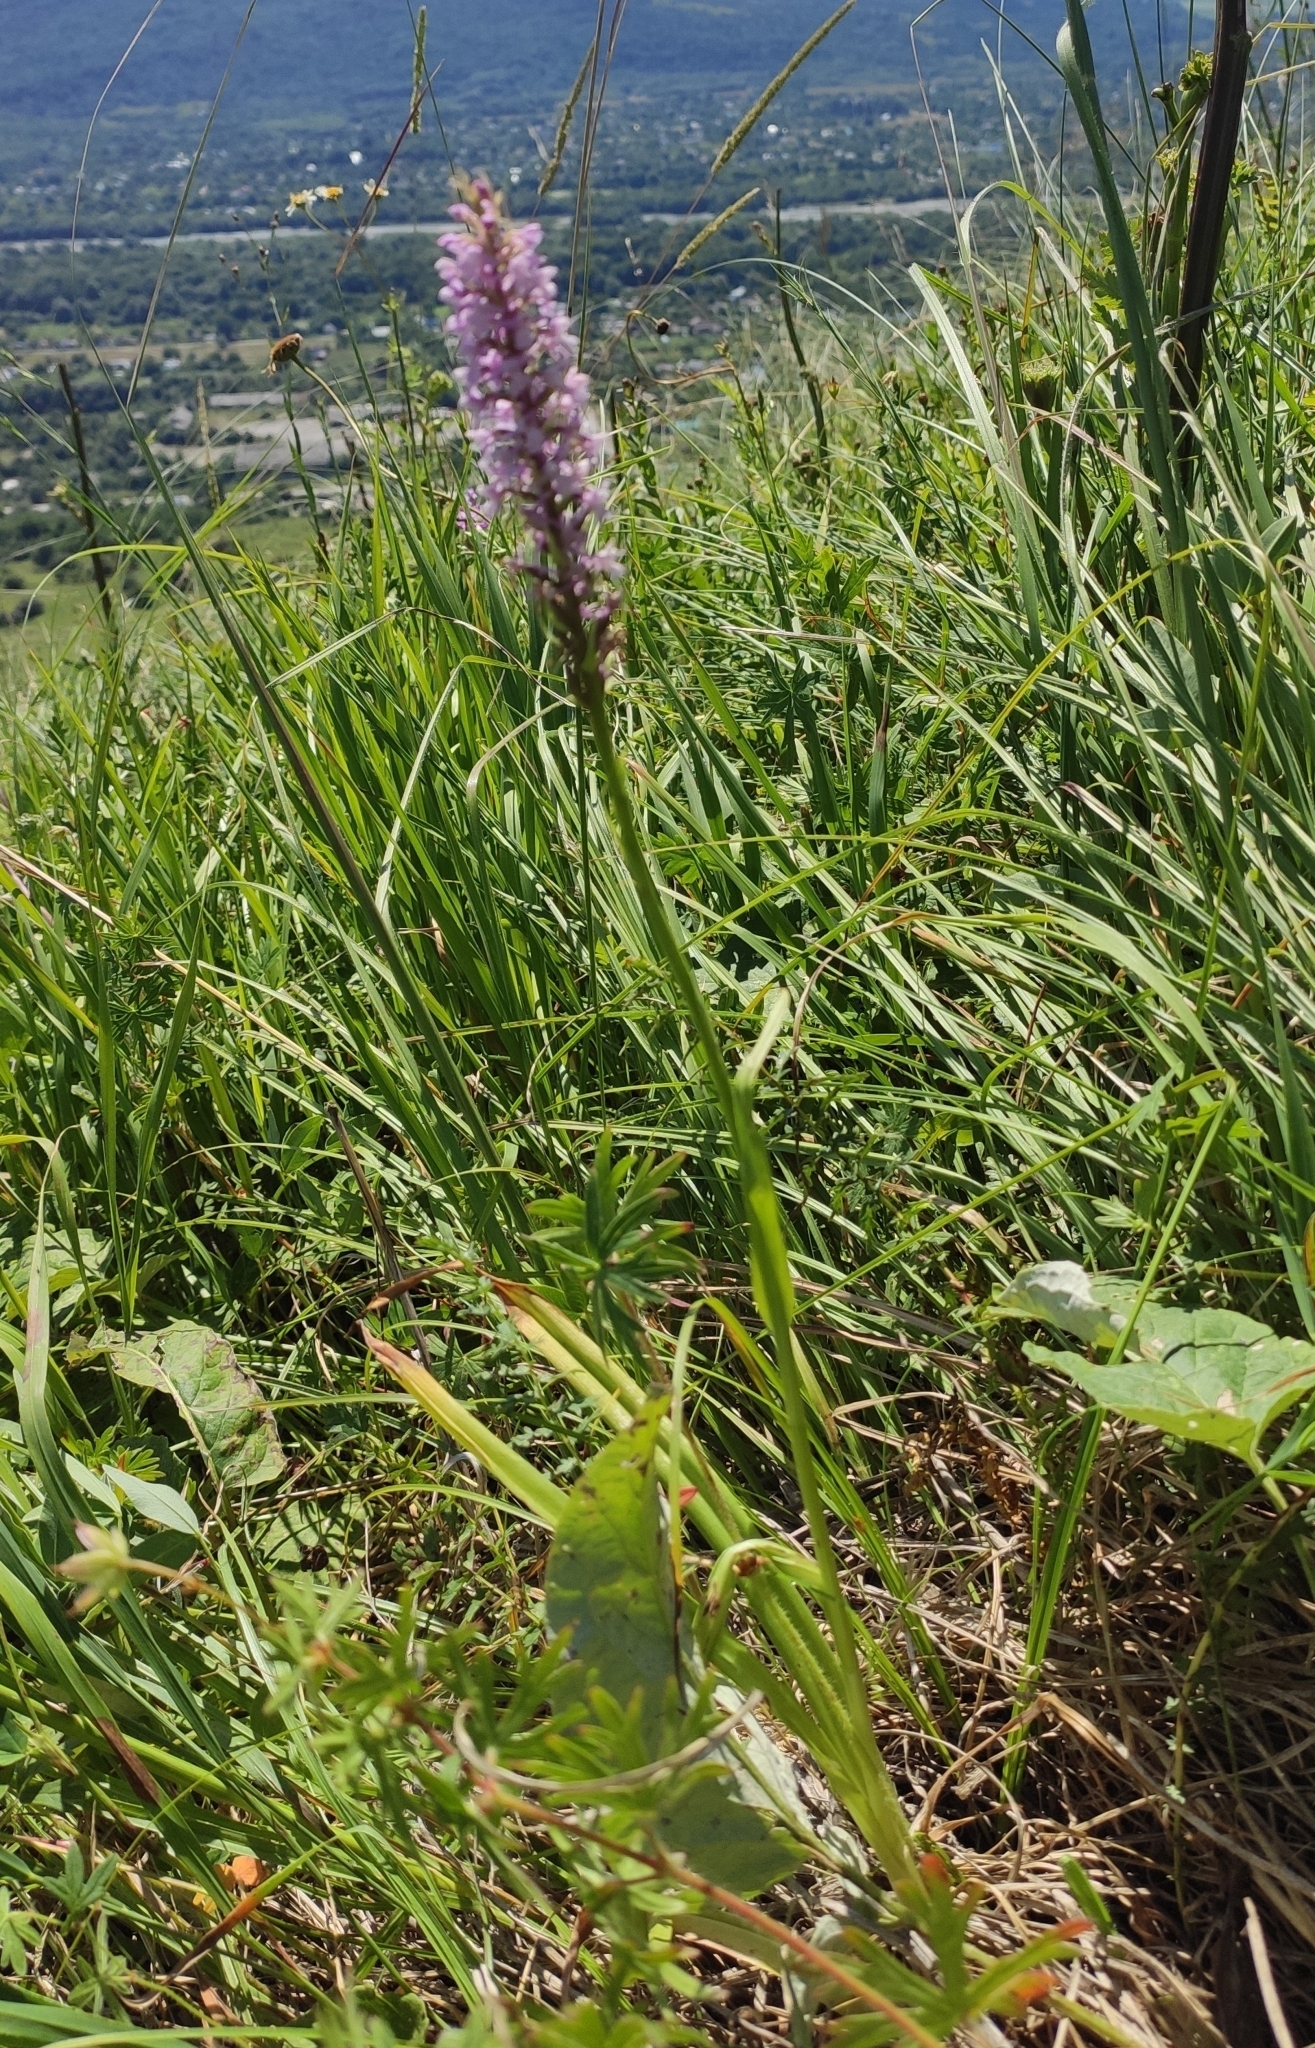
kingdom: Plantae
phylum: Tracheophyta
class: Liliopsida
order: Asparagales
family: Orchidaceae
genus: Gymnadenia
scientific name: Gymnadenia conopsea
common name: Fragrant orchid
